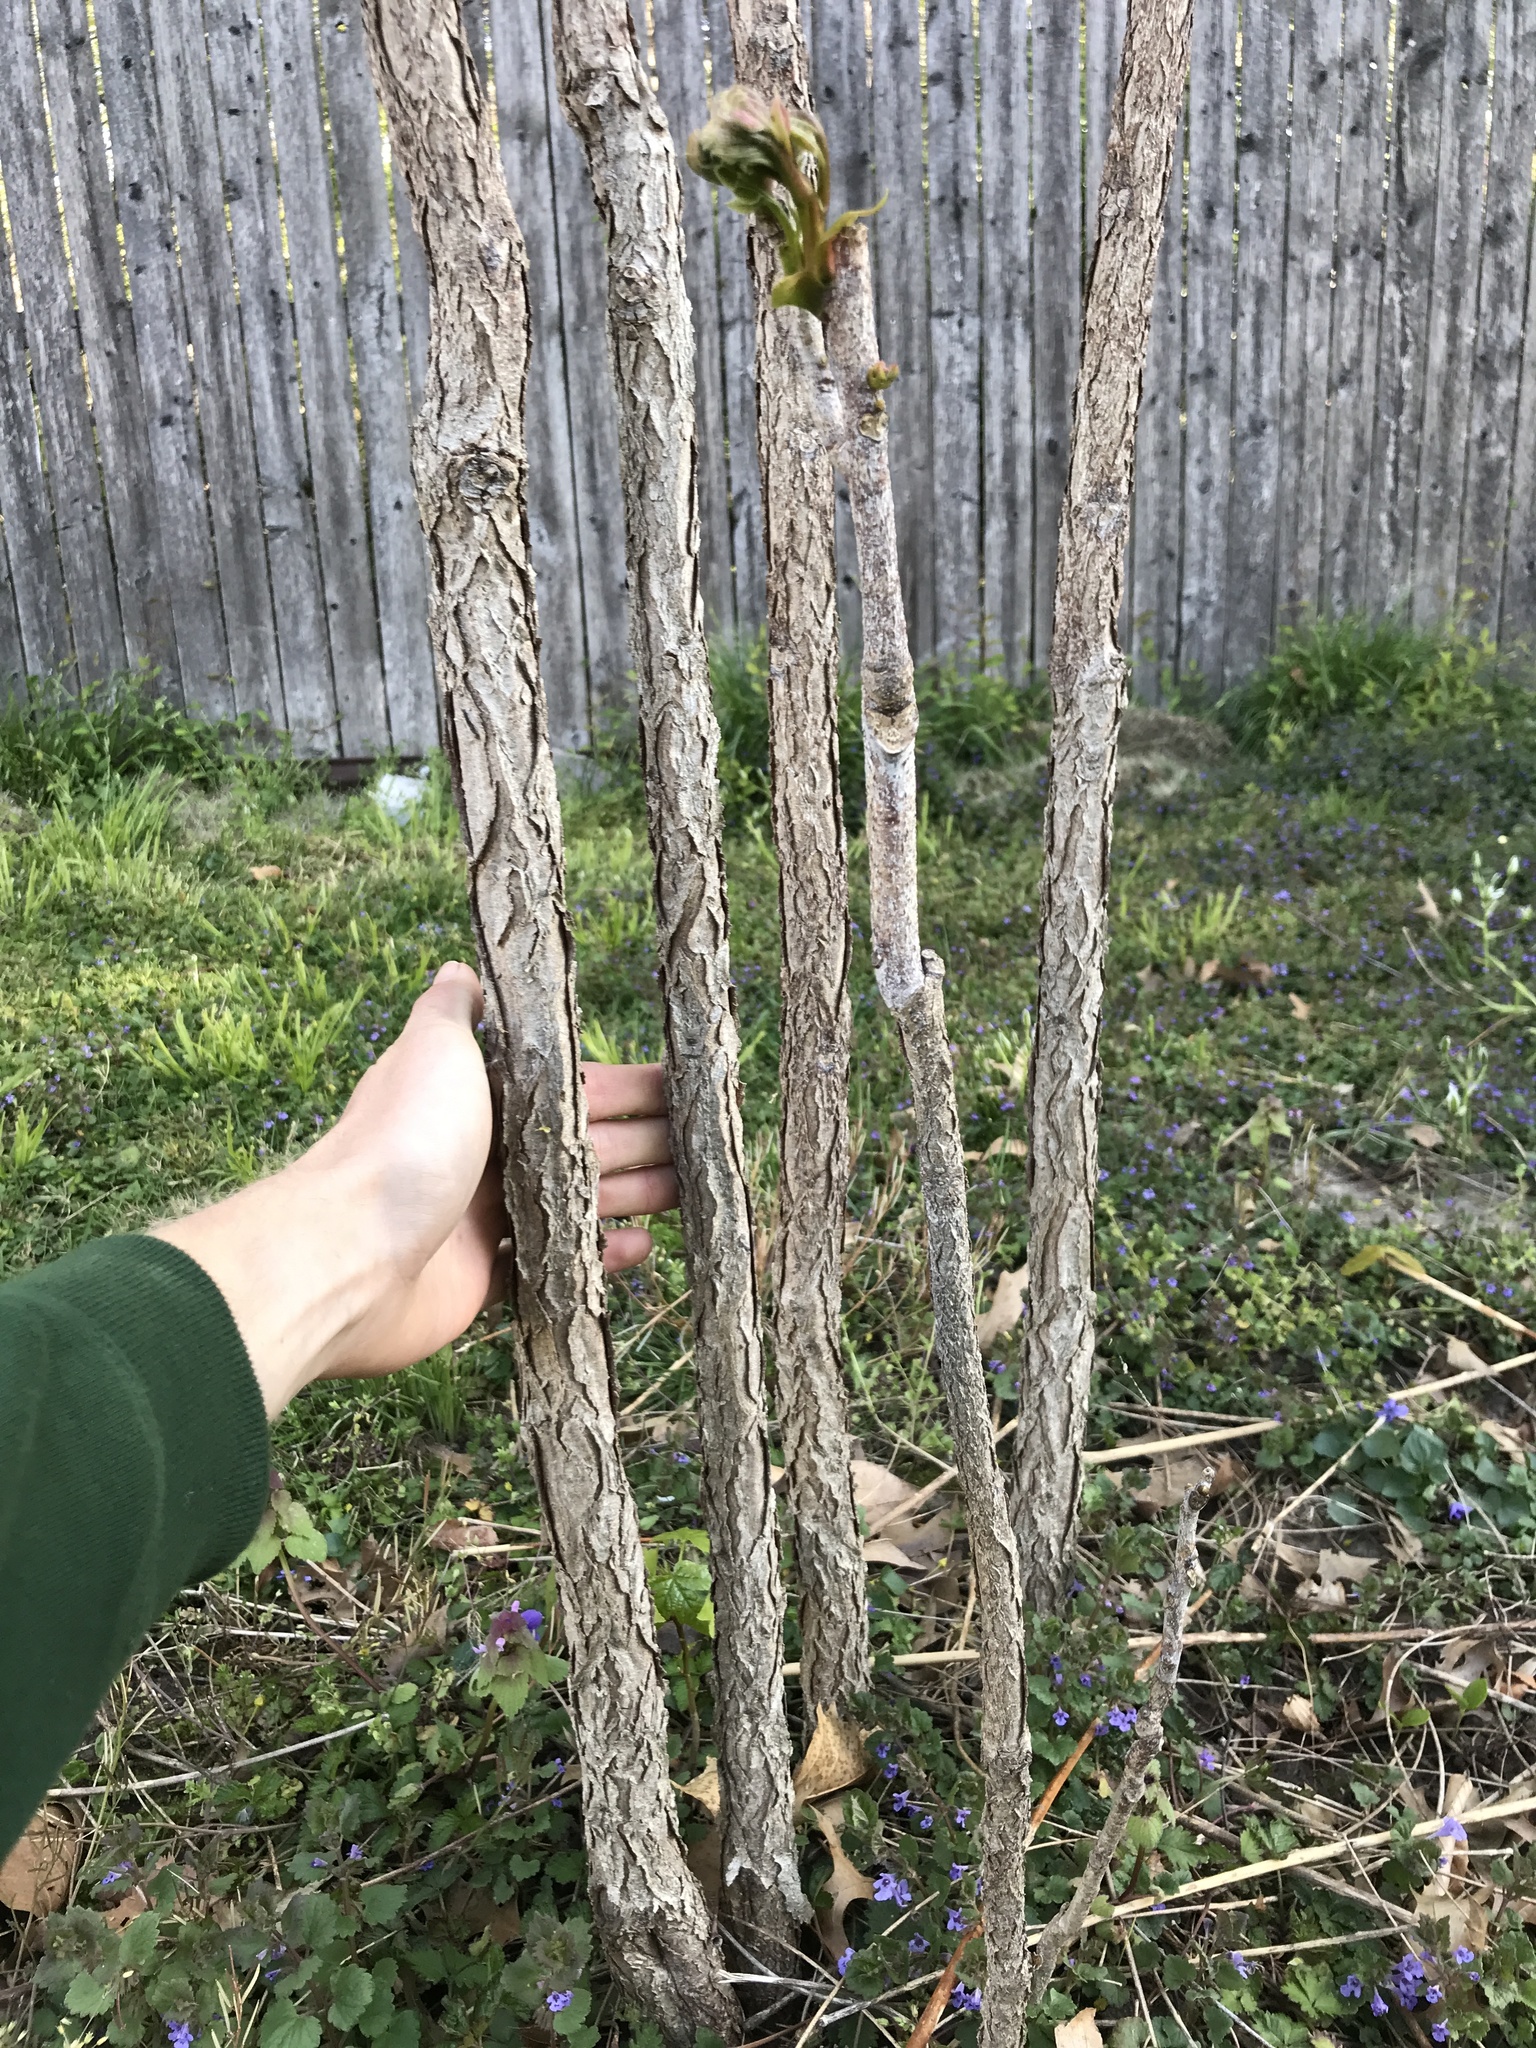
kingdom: Plantae
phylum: Tracheophyta
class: Magnoliopsida
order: Fabales
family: Fabaceae
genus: Gymnocladus
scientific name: Gymnocladus dioicus
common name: Kentucky coffee-tree
